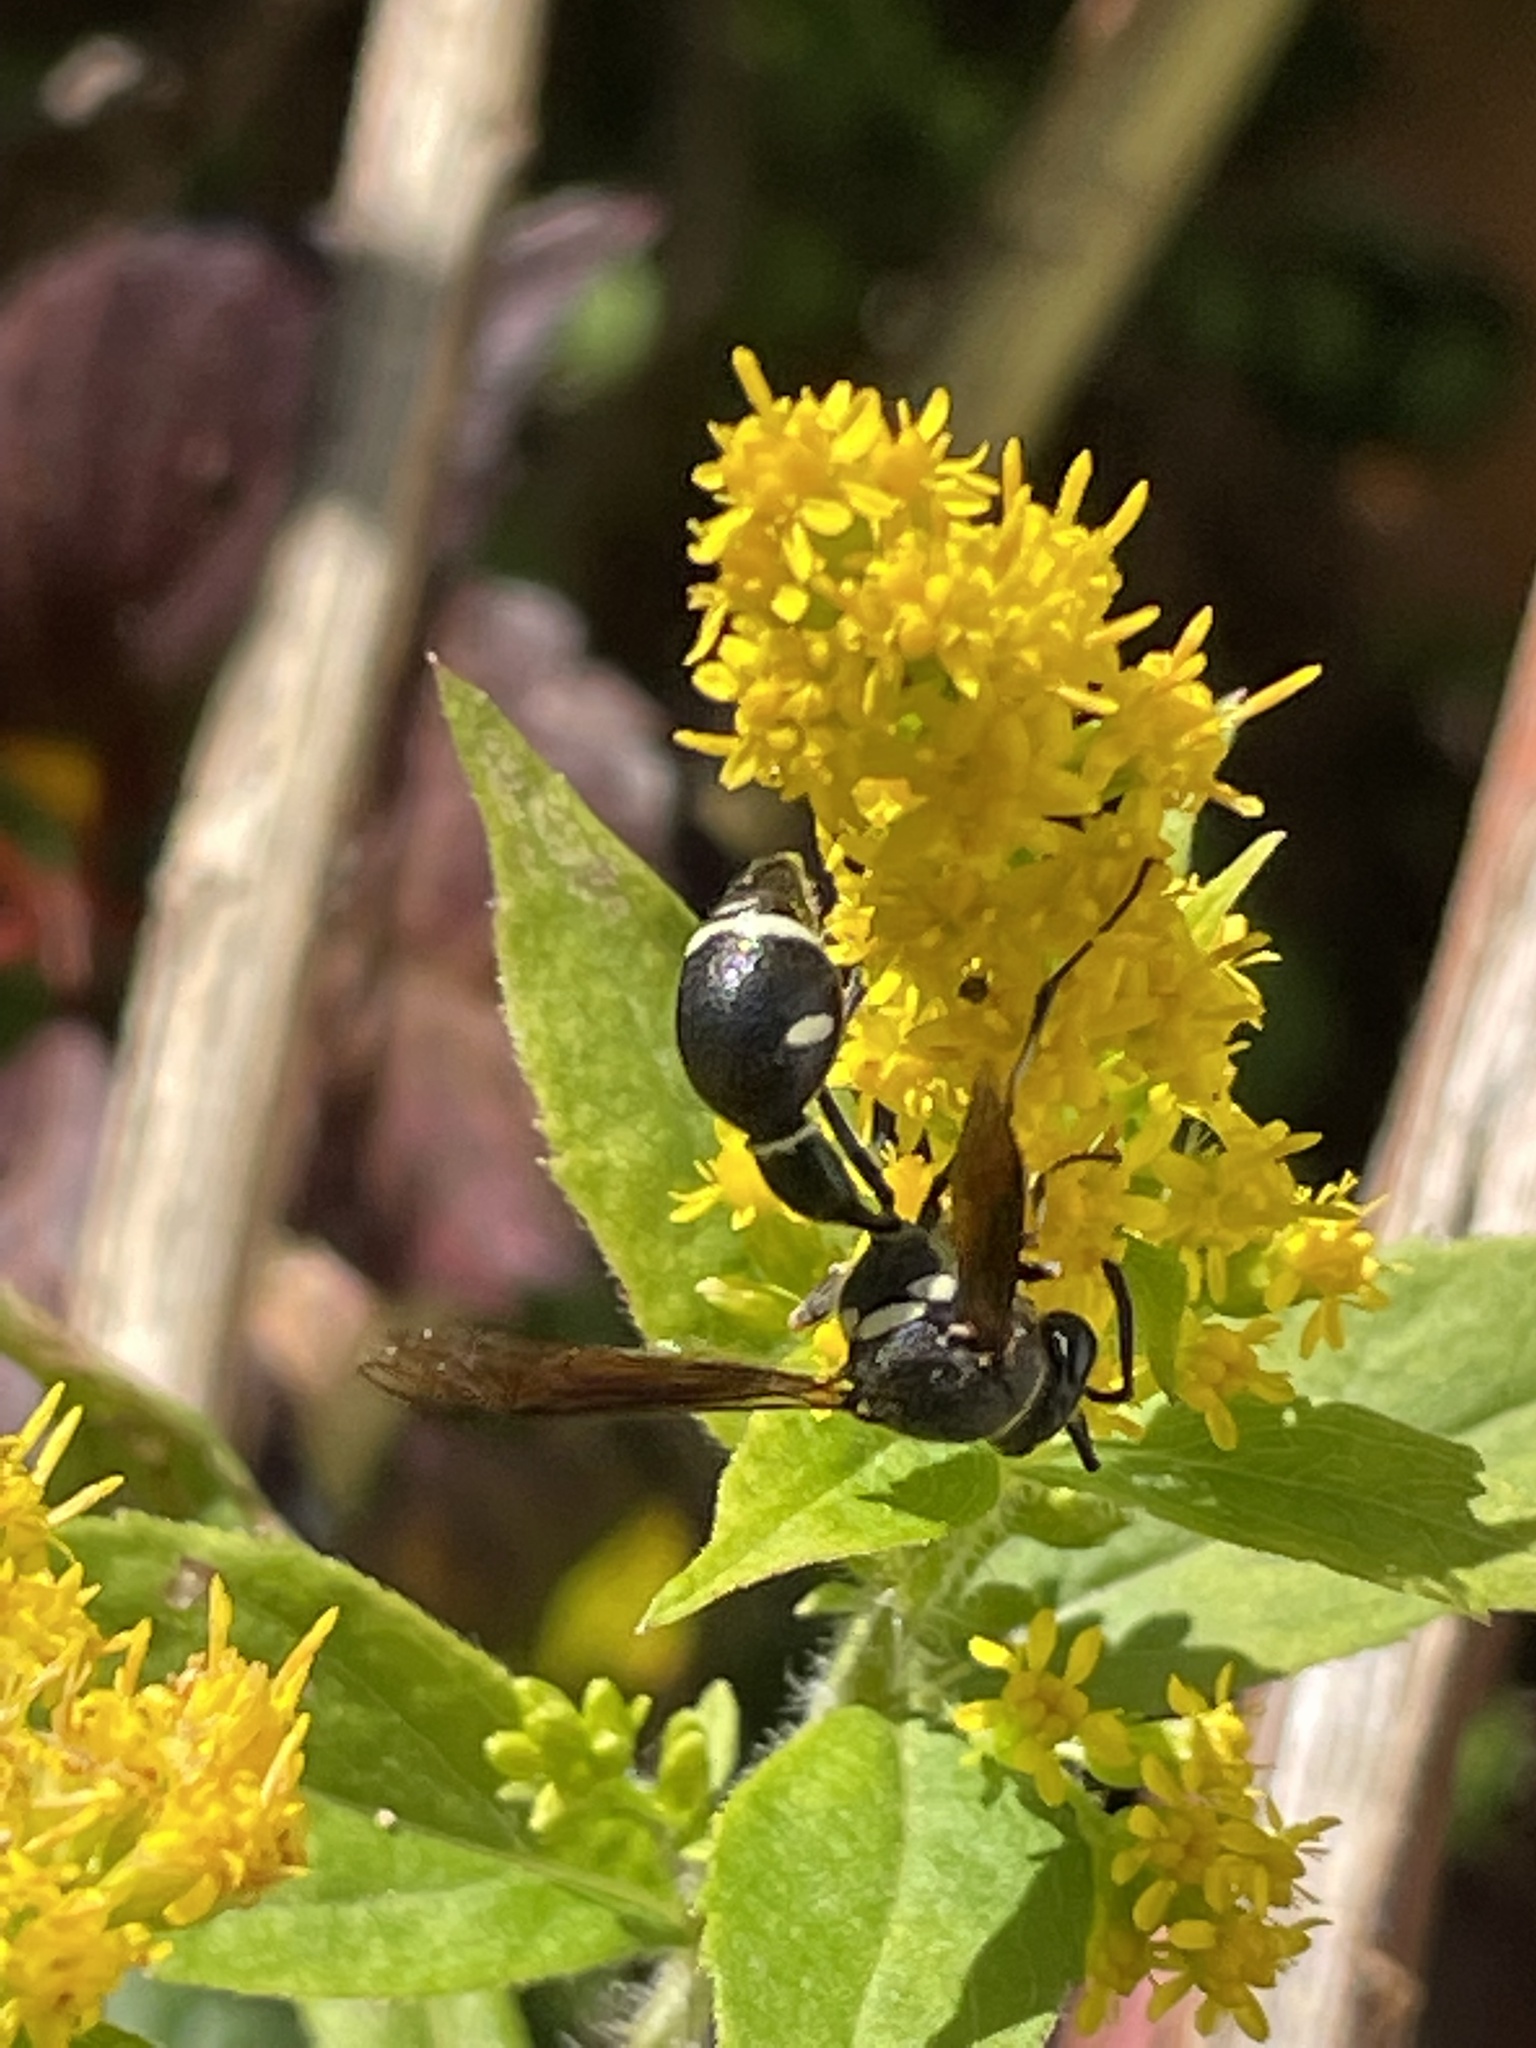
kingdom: Animalia
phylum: Arthropoda
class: Insecta
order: Hymenoptera
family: Vespidae
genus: Eumenes
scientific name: Eumenes fraternus
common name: Fraternal potter wasp
